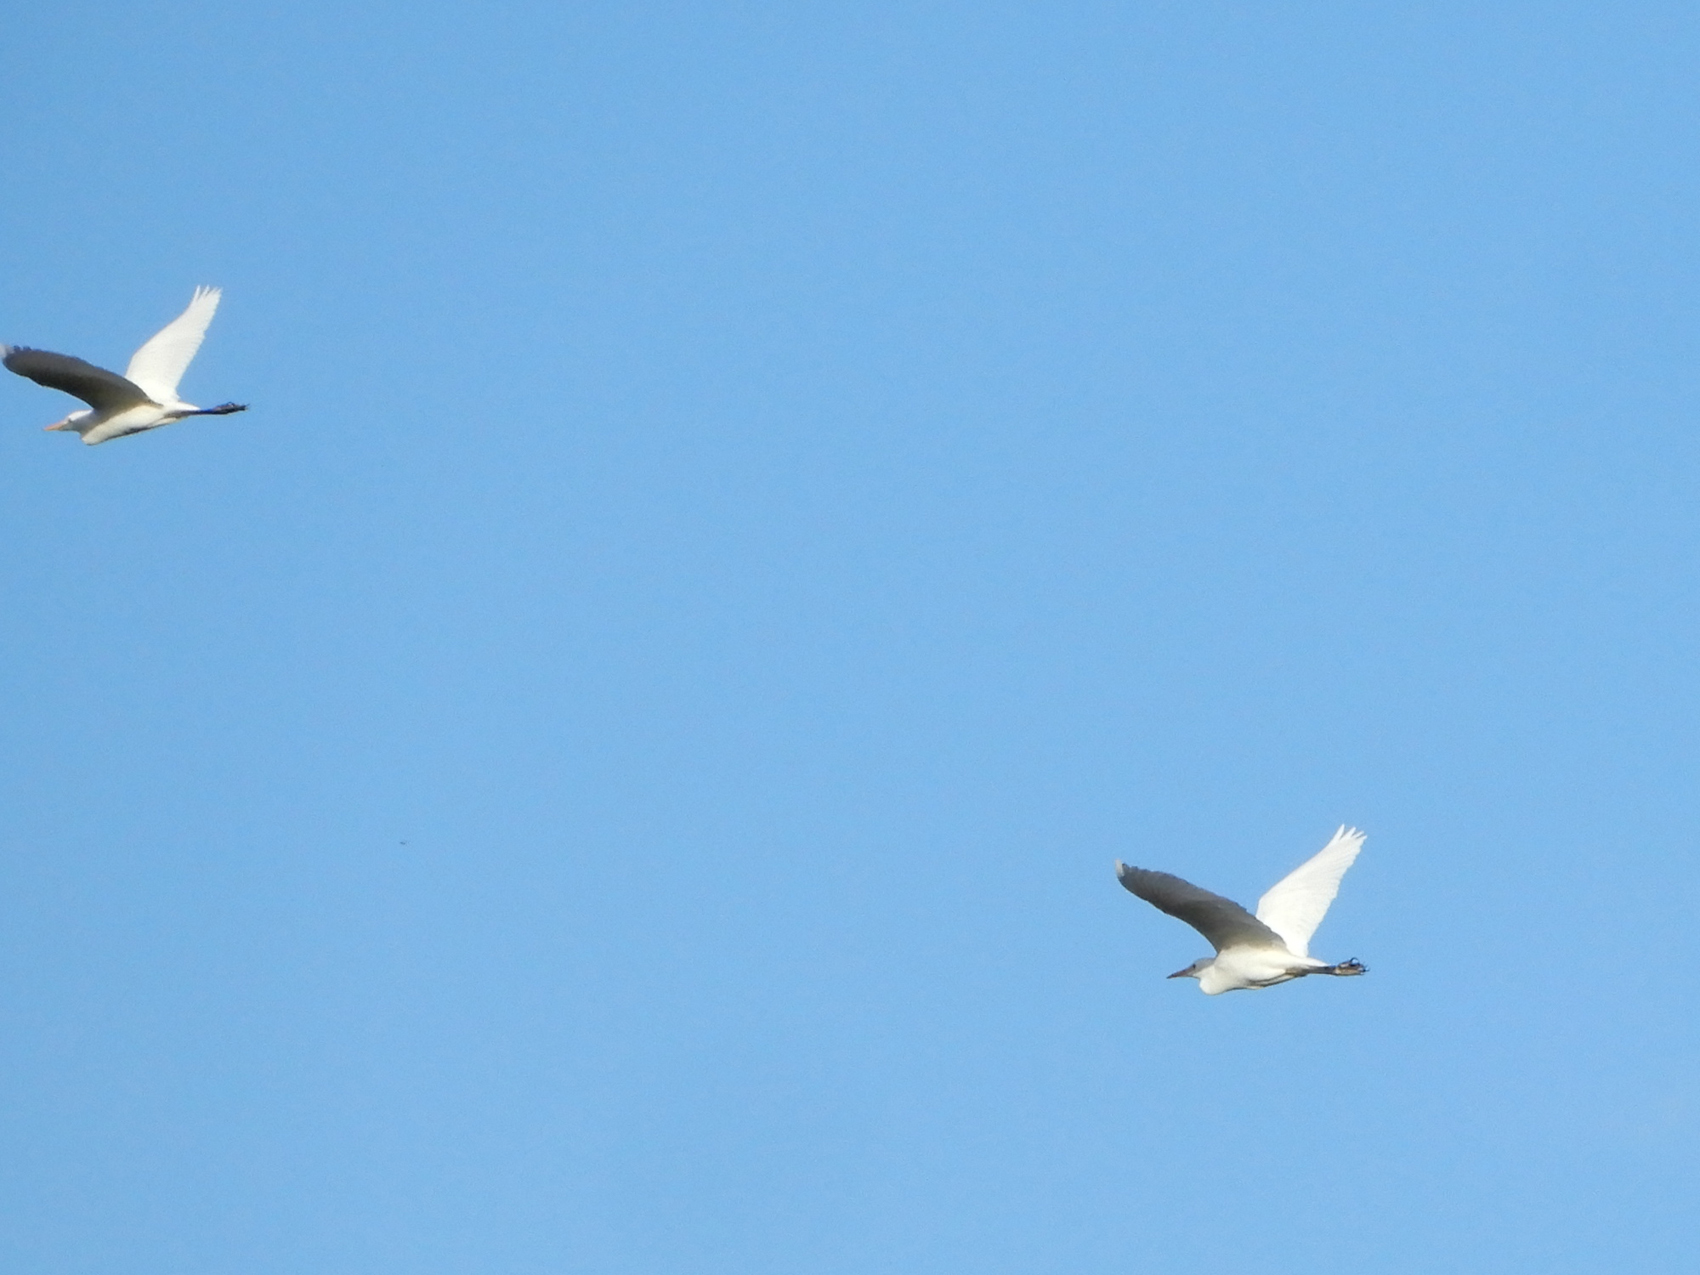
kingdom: Animalia
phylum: Chordata
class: Aves
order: Pelecaniformes
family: Ardeidae
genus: Bubulcus
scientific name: Bubulcus ibis
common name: Cattle egret
